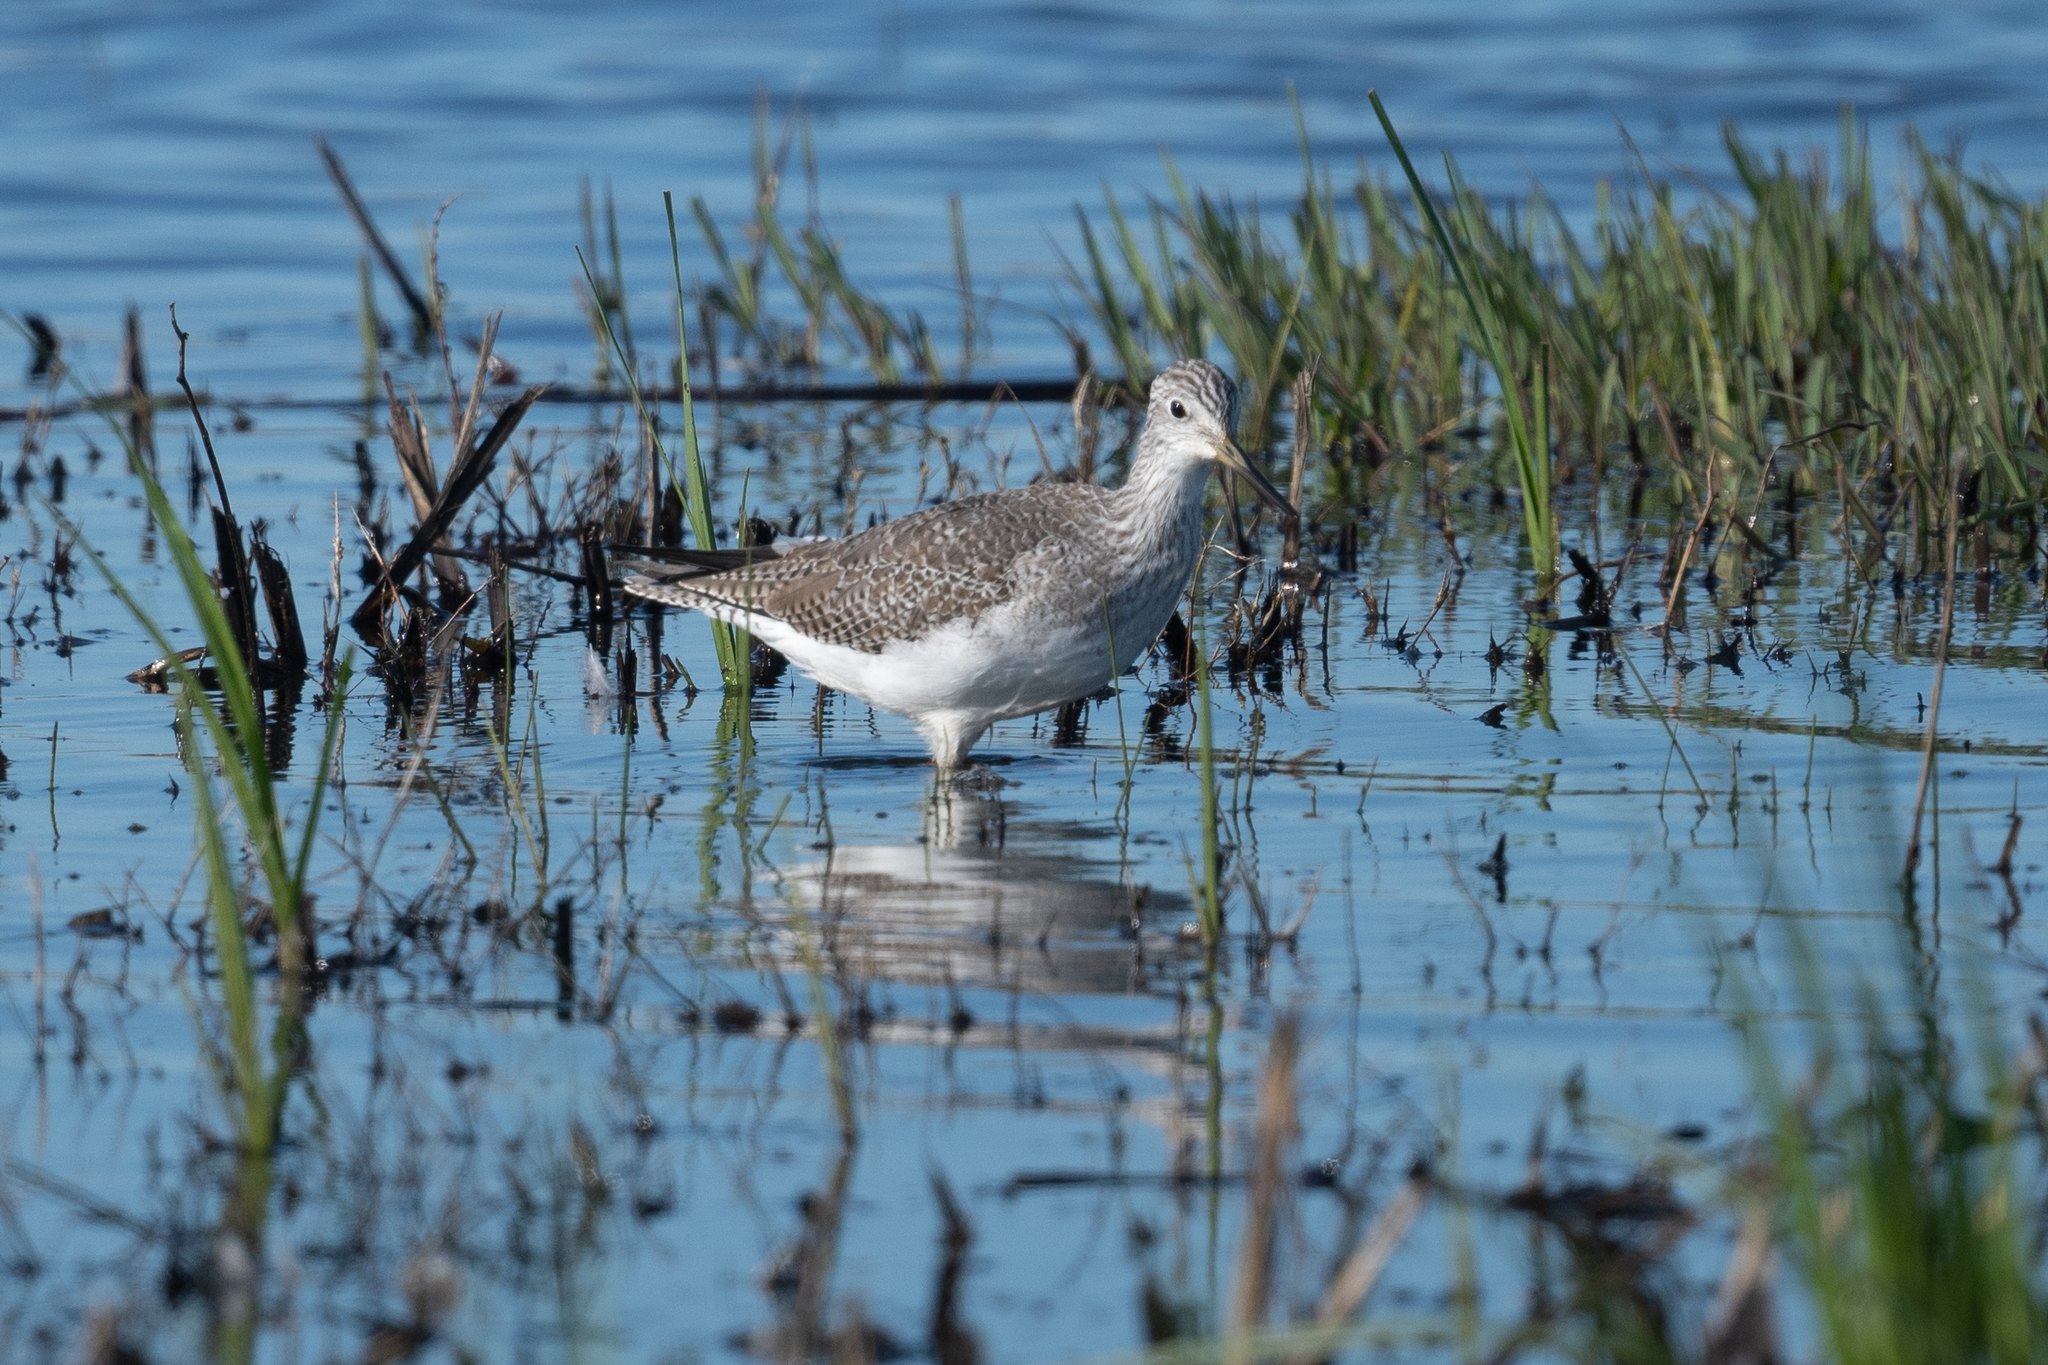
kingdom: Animalia
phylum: Chordata
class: Aves
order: Charadriiformes
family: Scolopacidae
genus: Tringa
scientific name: Tringa melanoleuca
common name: Greater yellowlegs
